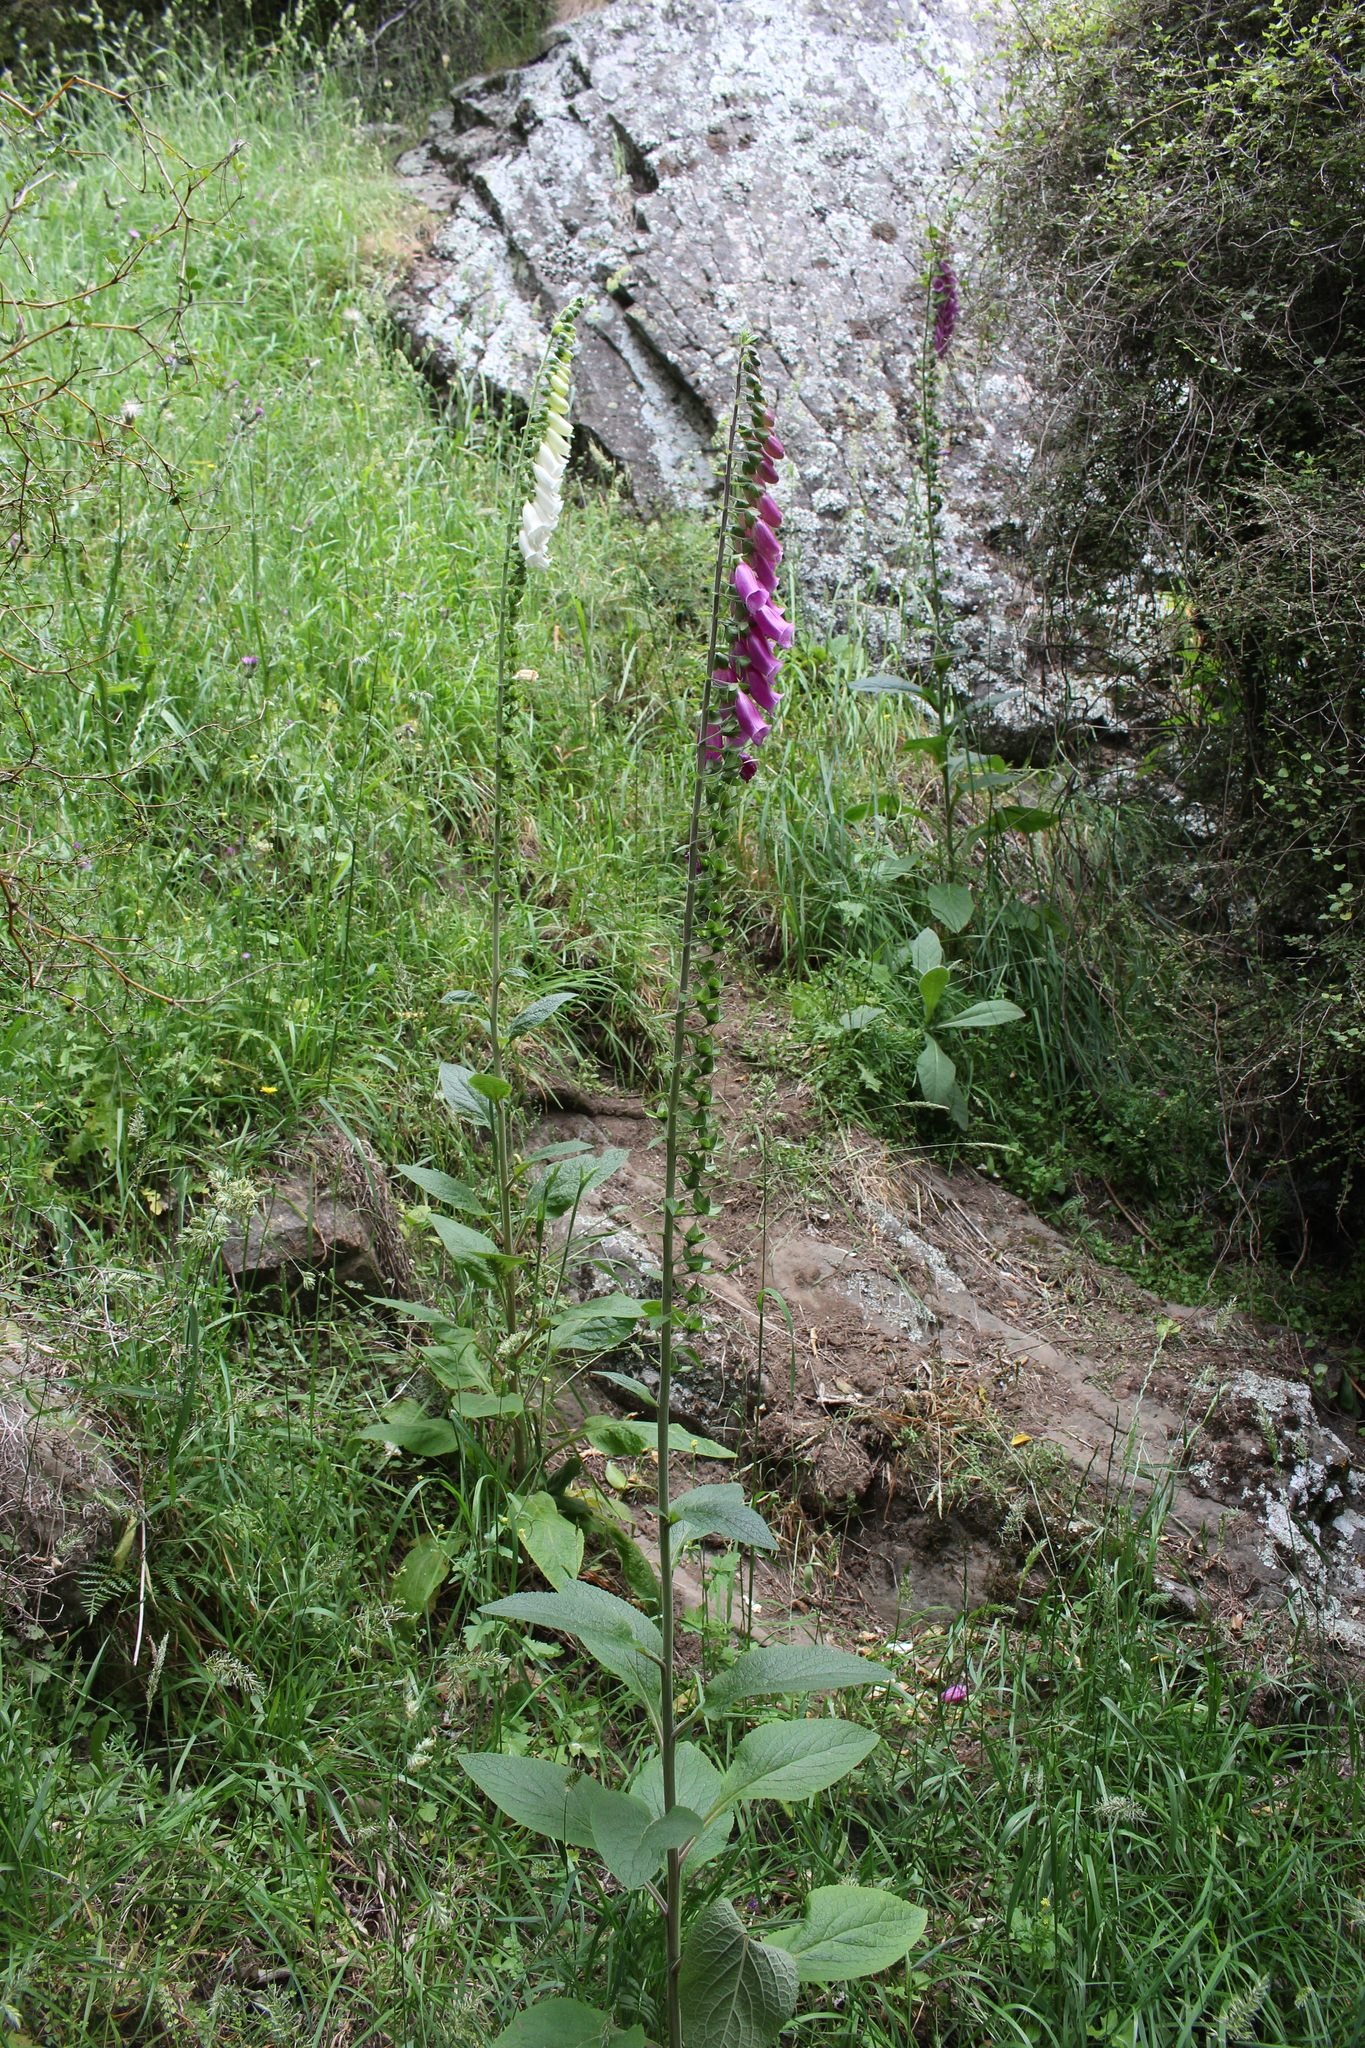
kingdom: Plantae
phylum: Tracheophyta
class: Magnoliopsida
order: Lamiales
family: Plantaginaceae
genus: Digitalis
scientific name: Digitalis purpurea
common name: Foxglove
